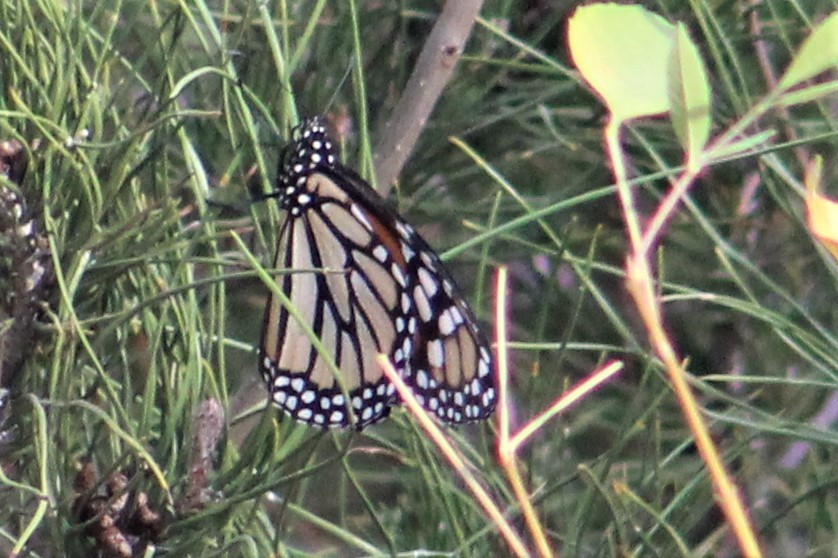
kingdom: Animalia
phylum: Arthropoda
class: Insecta
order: Lepidoptera
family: Nymphalidae
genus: Danaus
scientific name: Danaus plexippus
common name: Monarch
